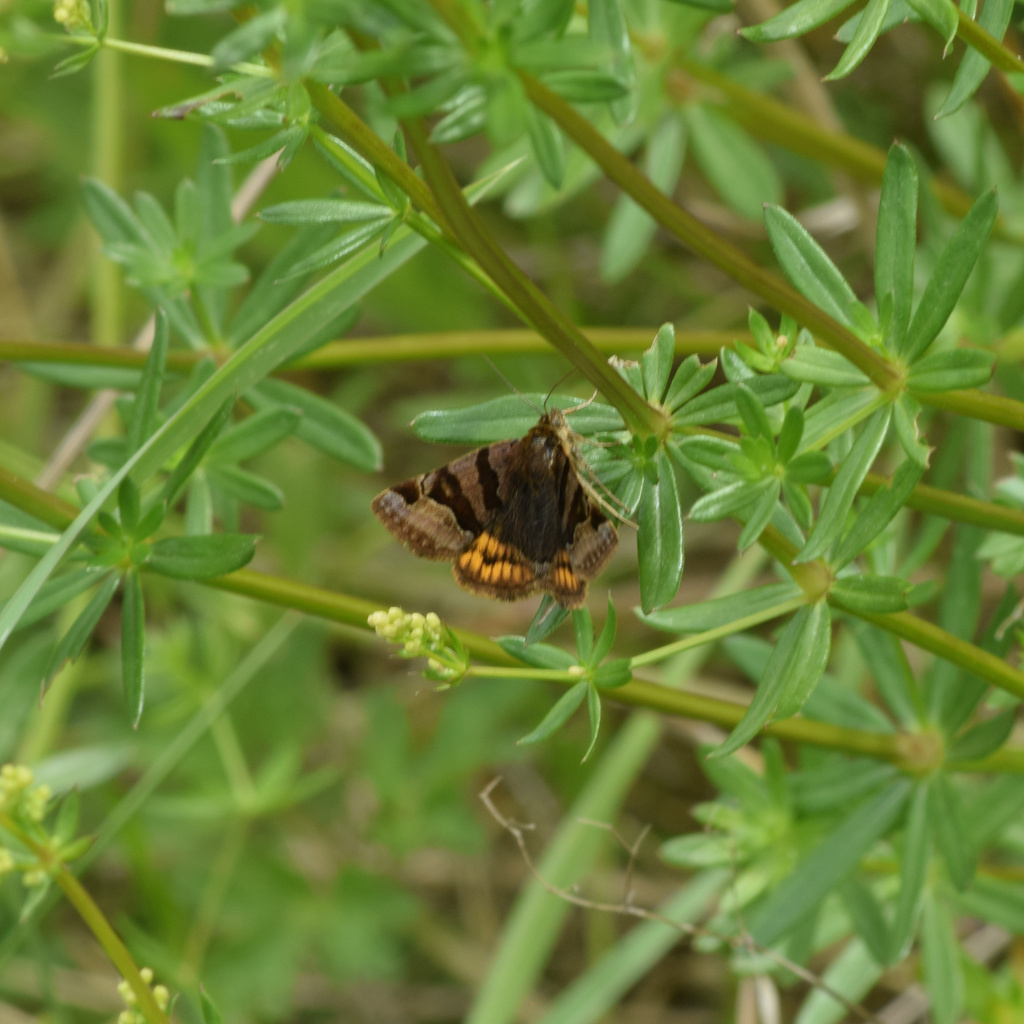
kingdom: Animalia
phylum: Arthropoda
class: Insecta
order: Lepidoptera
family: Erebidae
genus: Euclidia
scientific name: Euclidia glyphica
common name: Burnet companion
